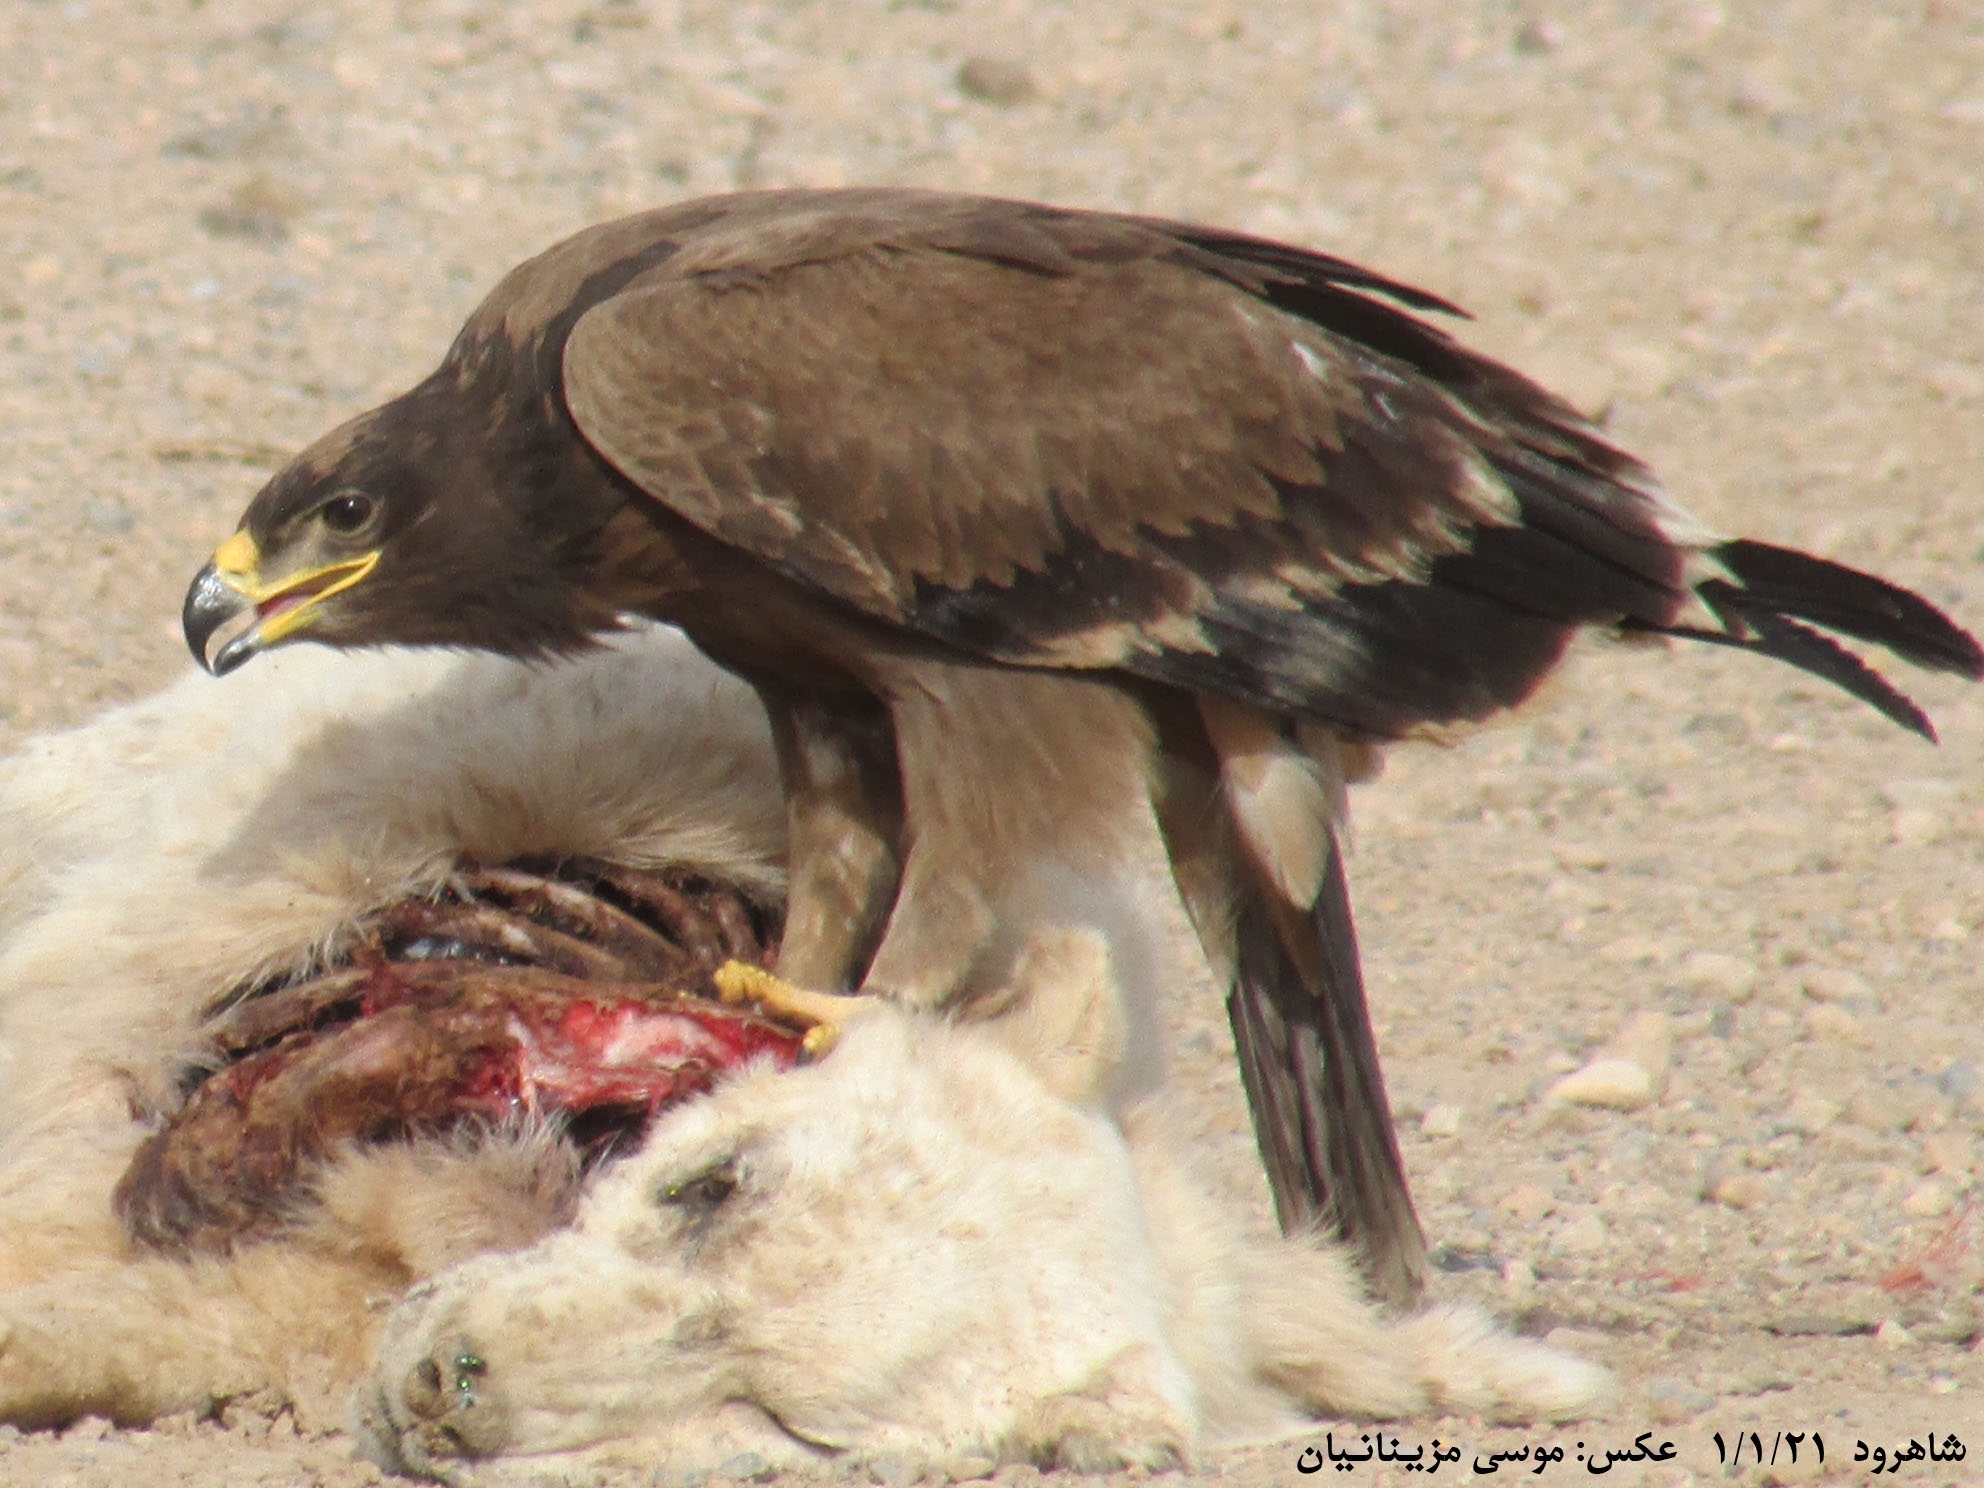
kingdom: Animalia
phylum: Chordata
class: Aves
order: Accipitriformes
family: Accipitridae
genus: Aquila
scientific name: Aquila nipalensis
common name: Steppe eagle
